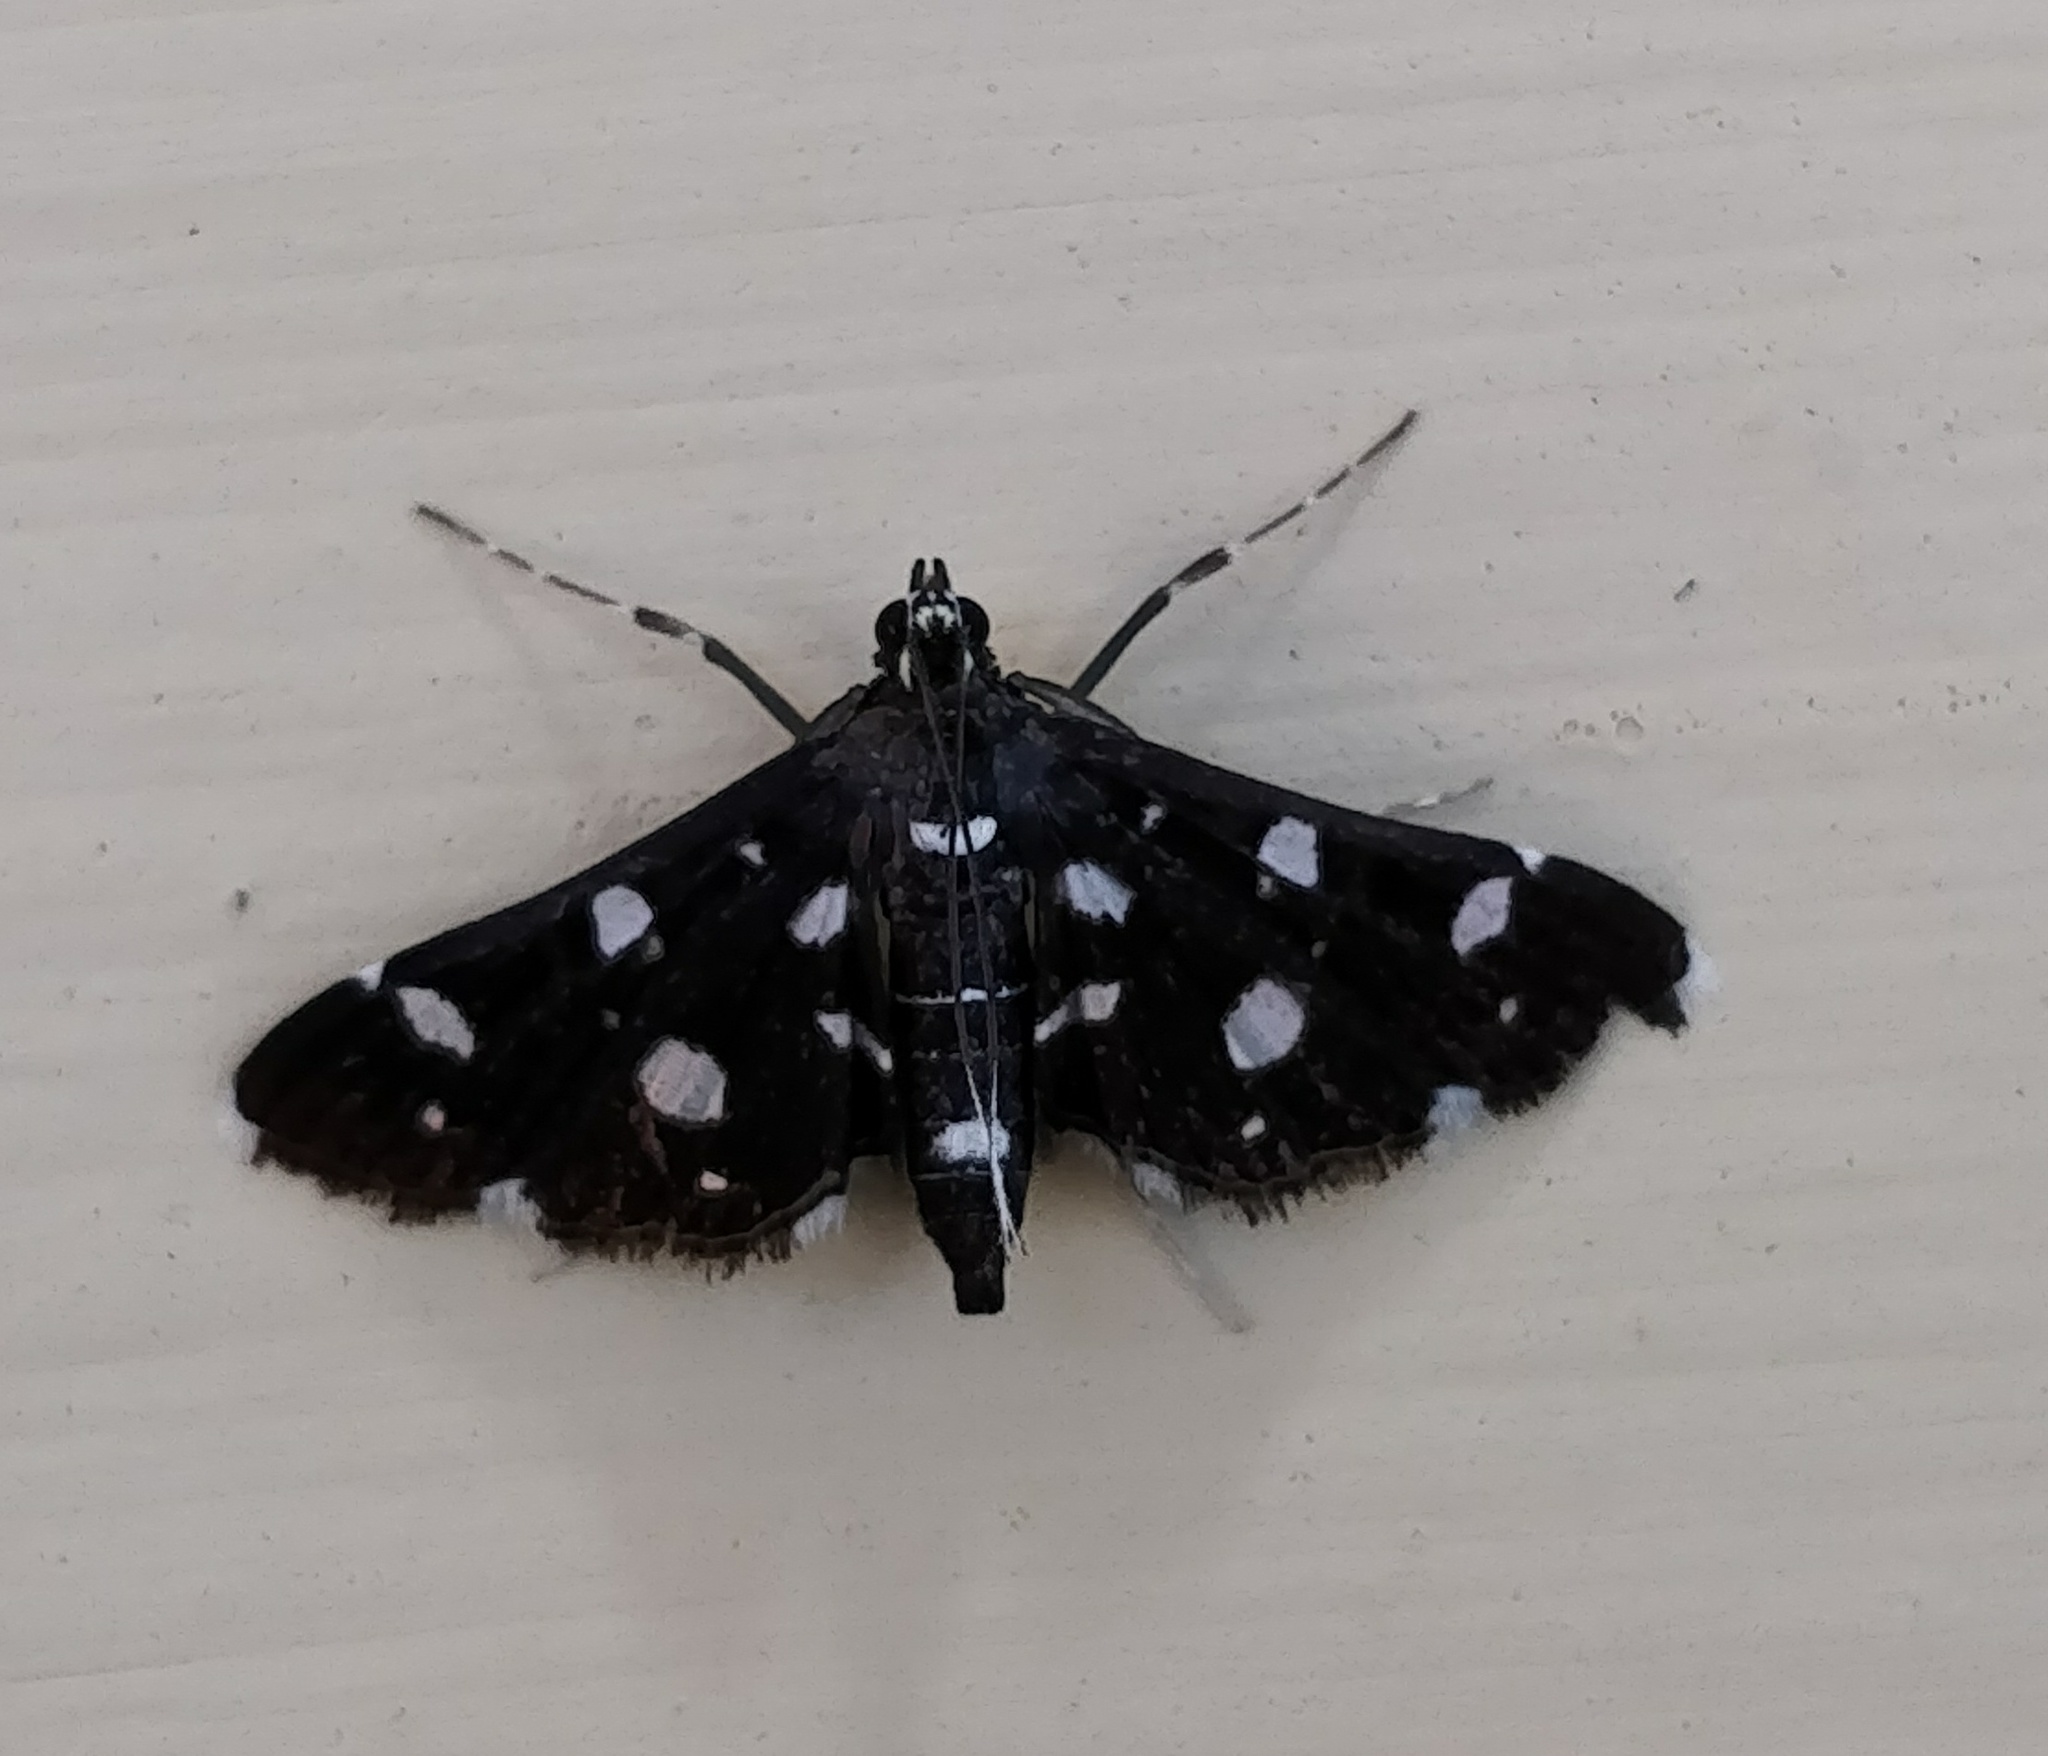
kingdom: Animalia
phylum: Arthropoda
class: Insecta
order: Lepidoptera
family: Crambidae
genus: Bocchoris
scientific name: Bocchoris inspersalis
